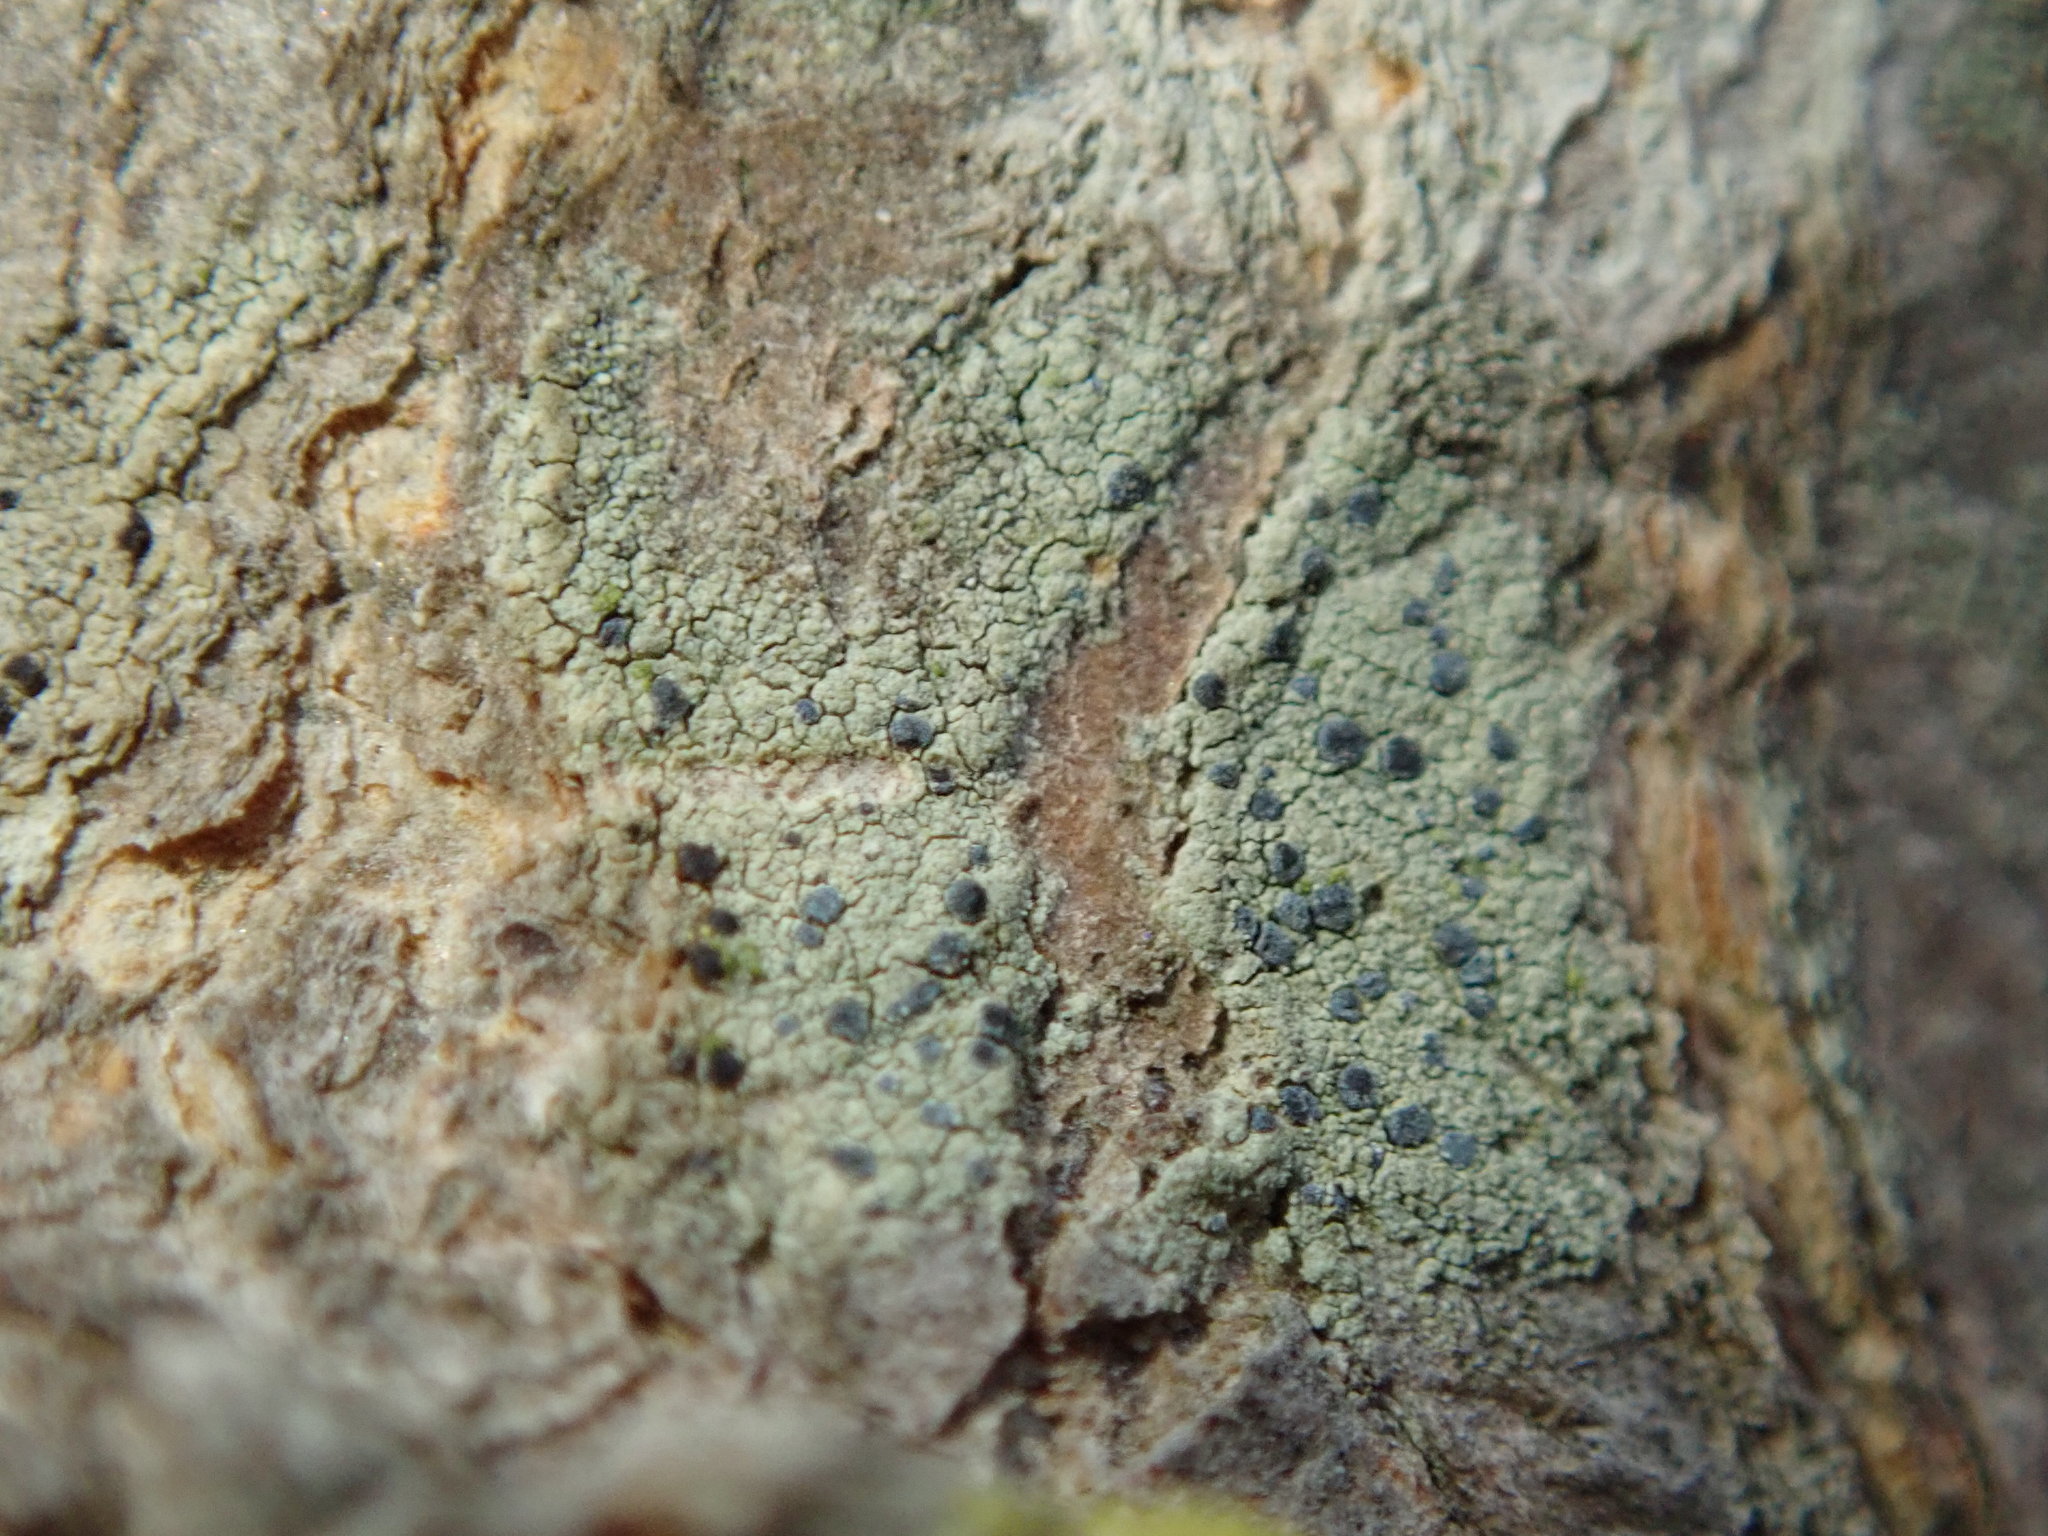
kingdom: Fungi
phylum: Ascomycota
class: Arthoniomycetes
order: Arthoniales
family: Chrysotrichaceae
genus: Chrysothrix
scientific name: Chrysothrix caesia
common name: Frosted comma lichen
